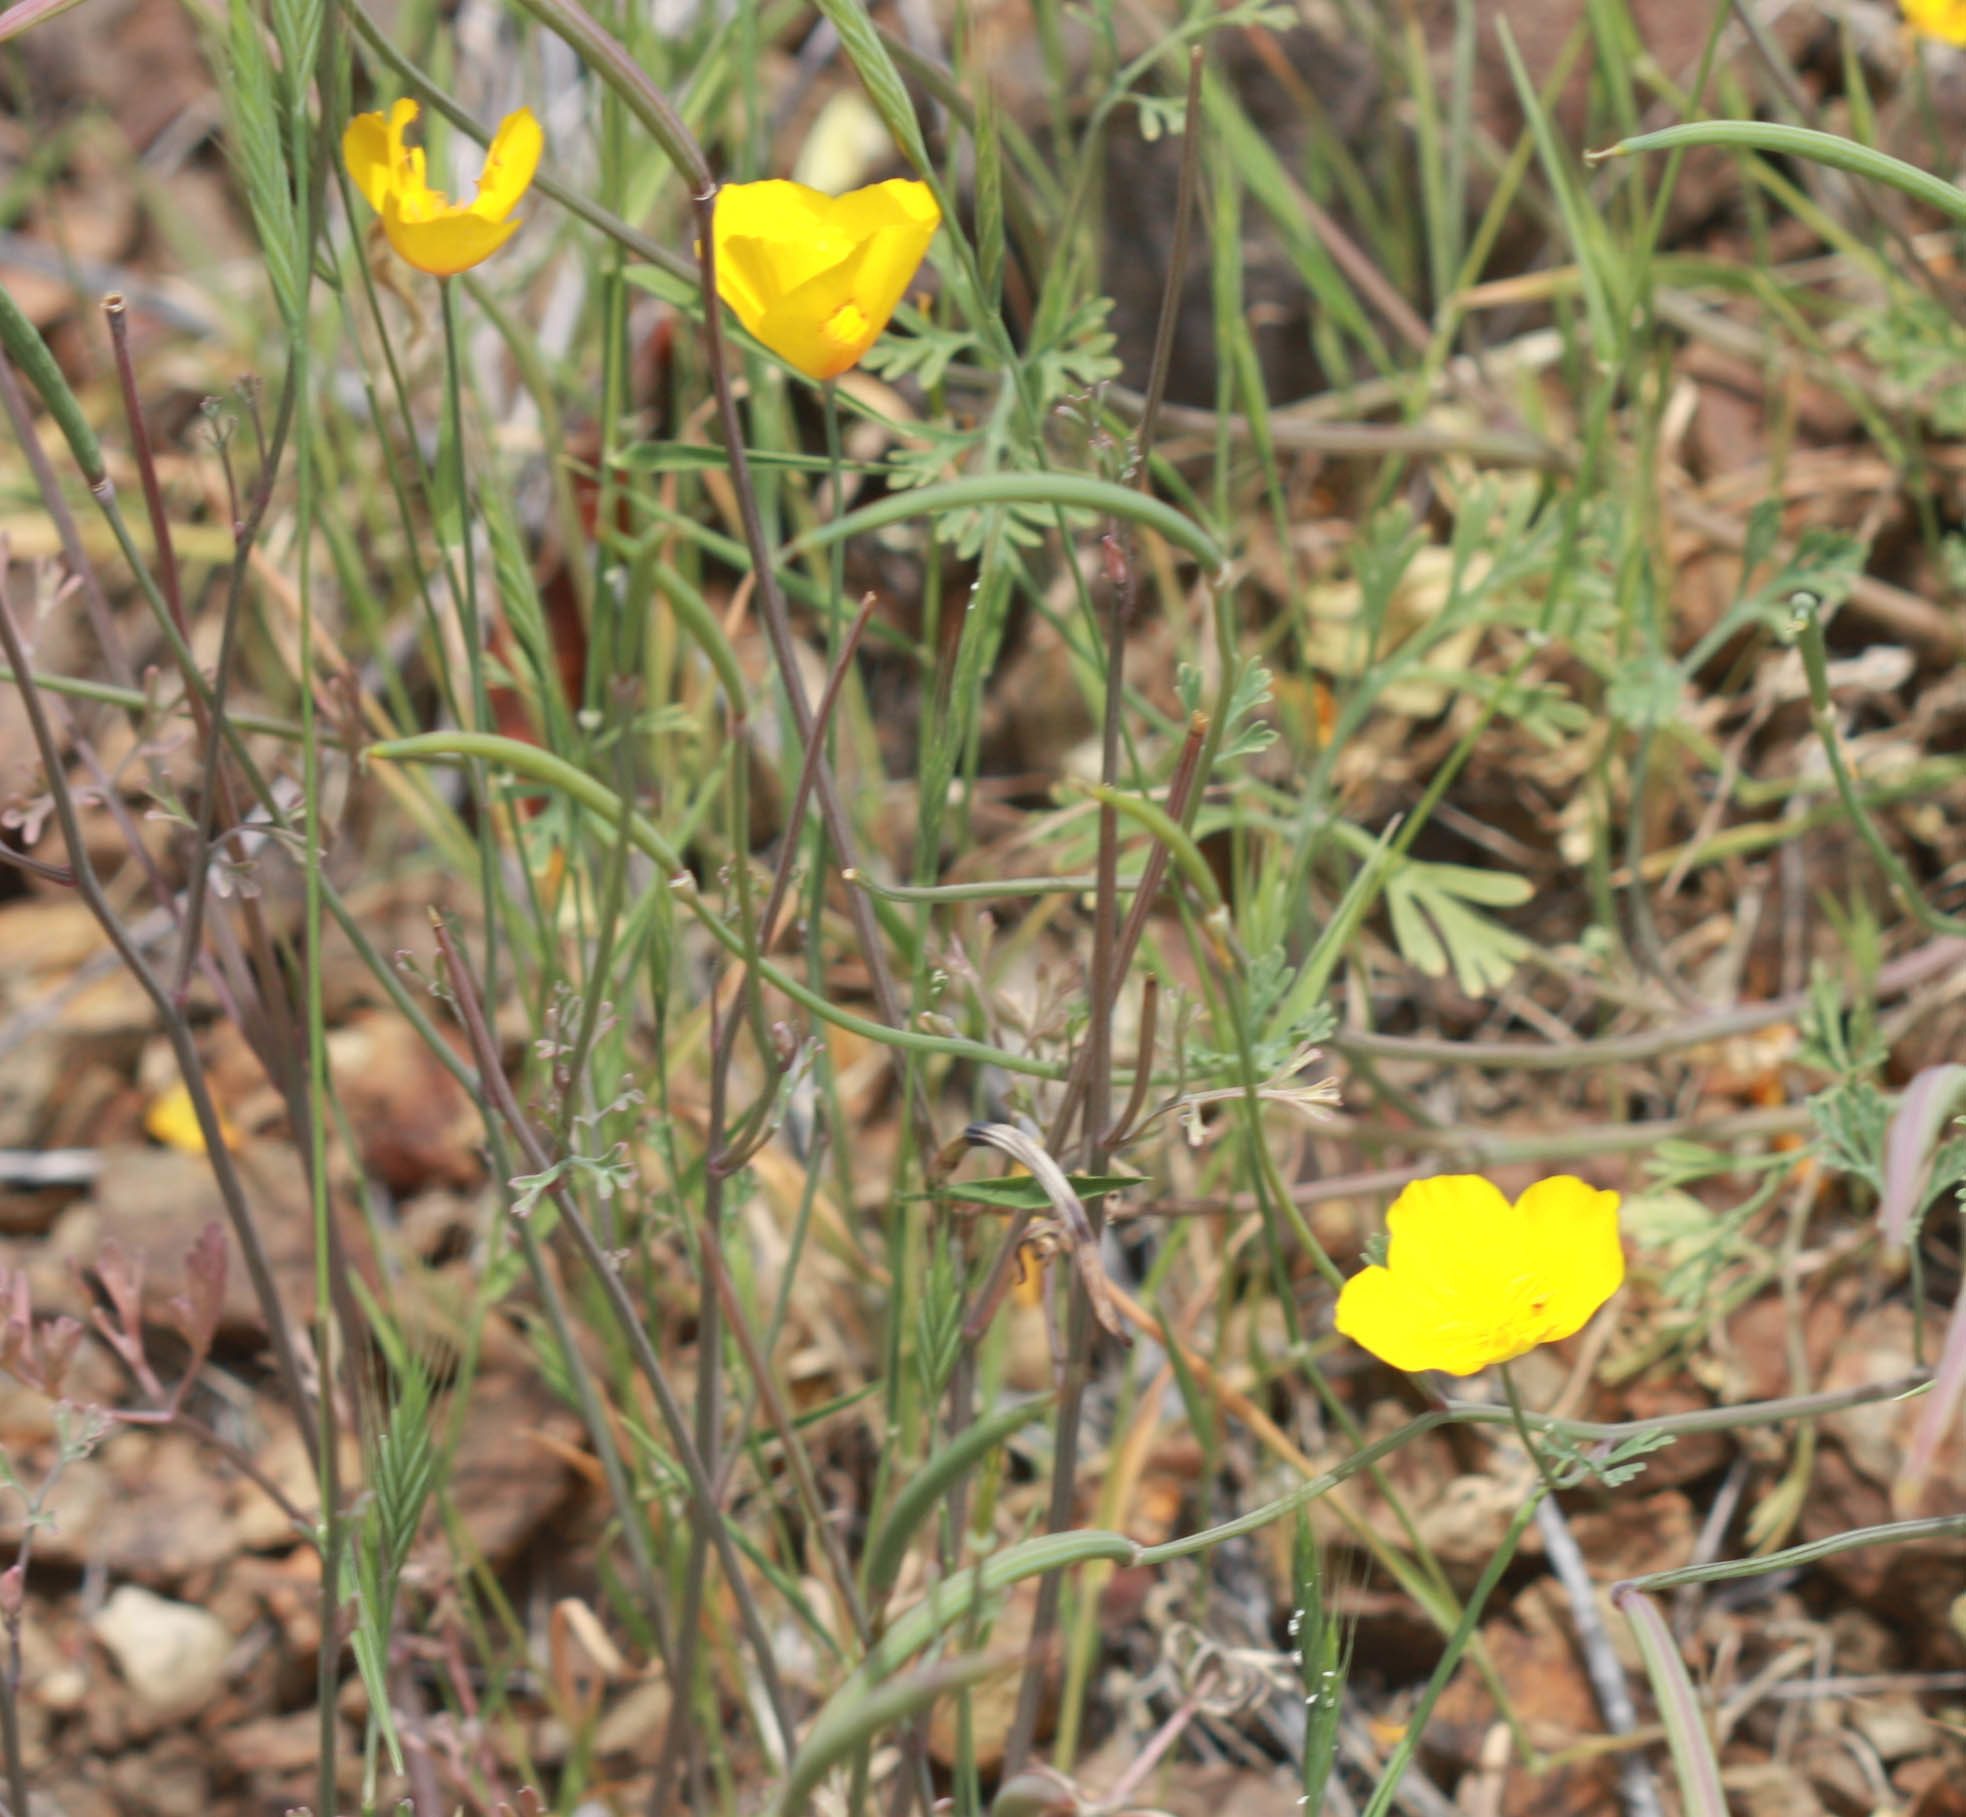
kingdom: Plantae
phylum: Tracheophyta
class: Magnoliopsida
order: Ranunculales
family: Papaveraceae
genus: Eschscholzia
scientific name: Eschscholzia californica
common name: California poppy
